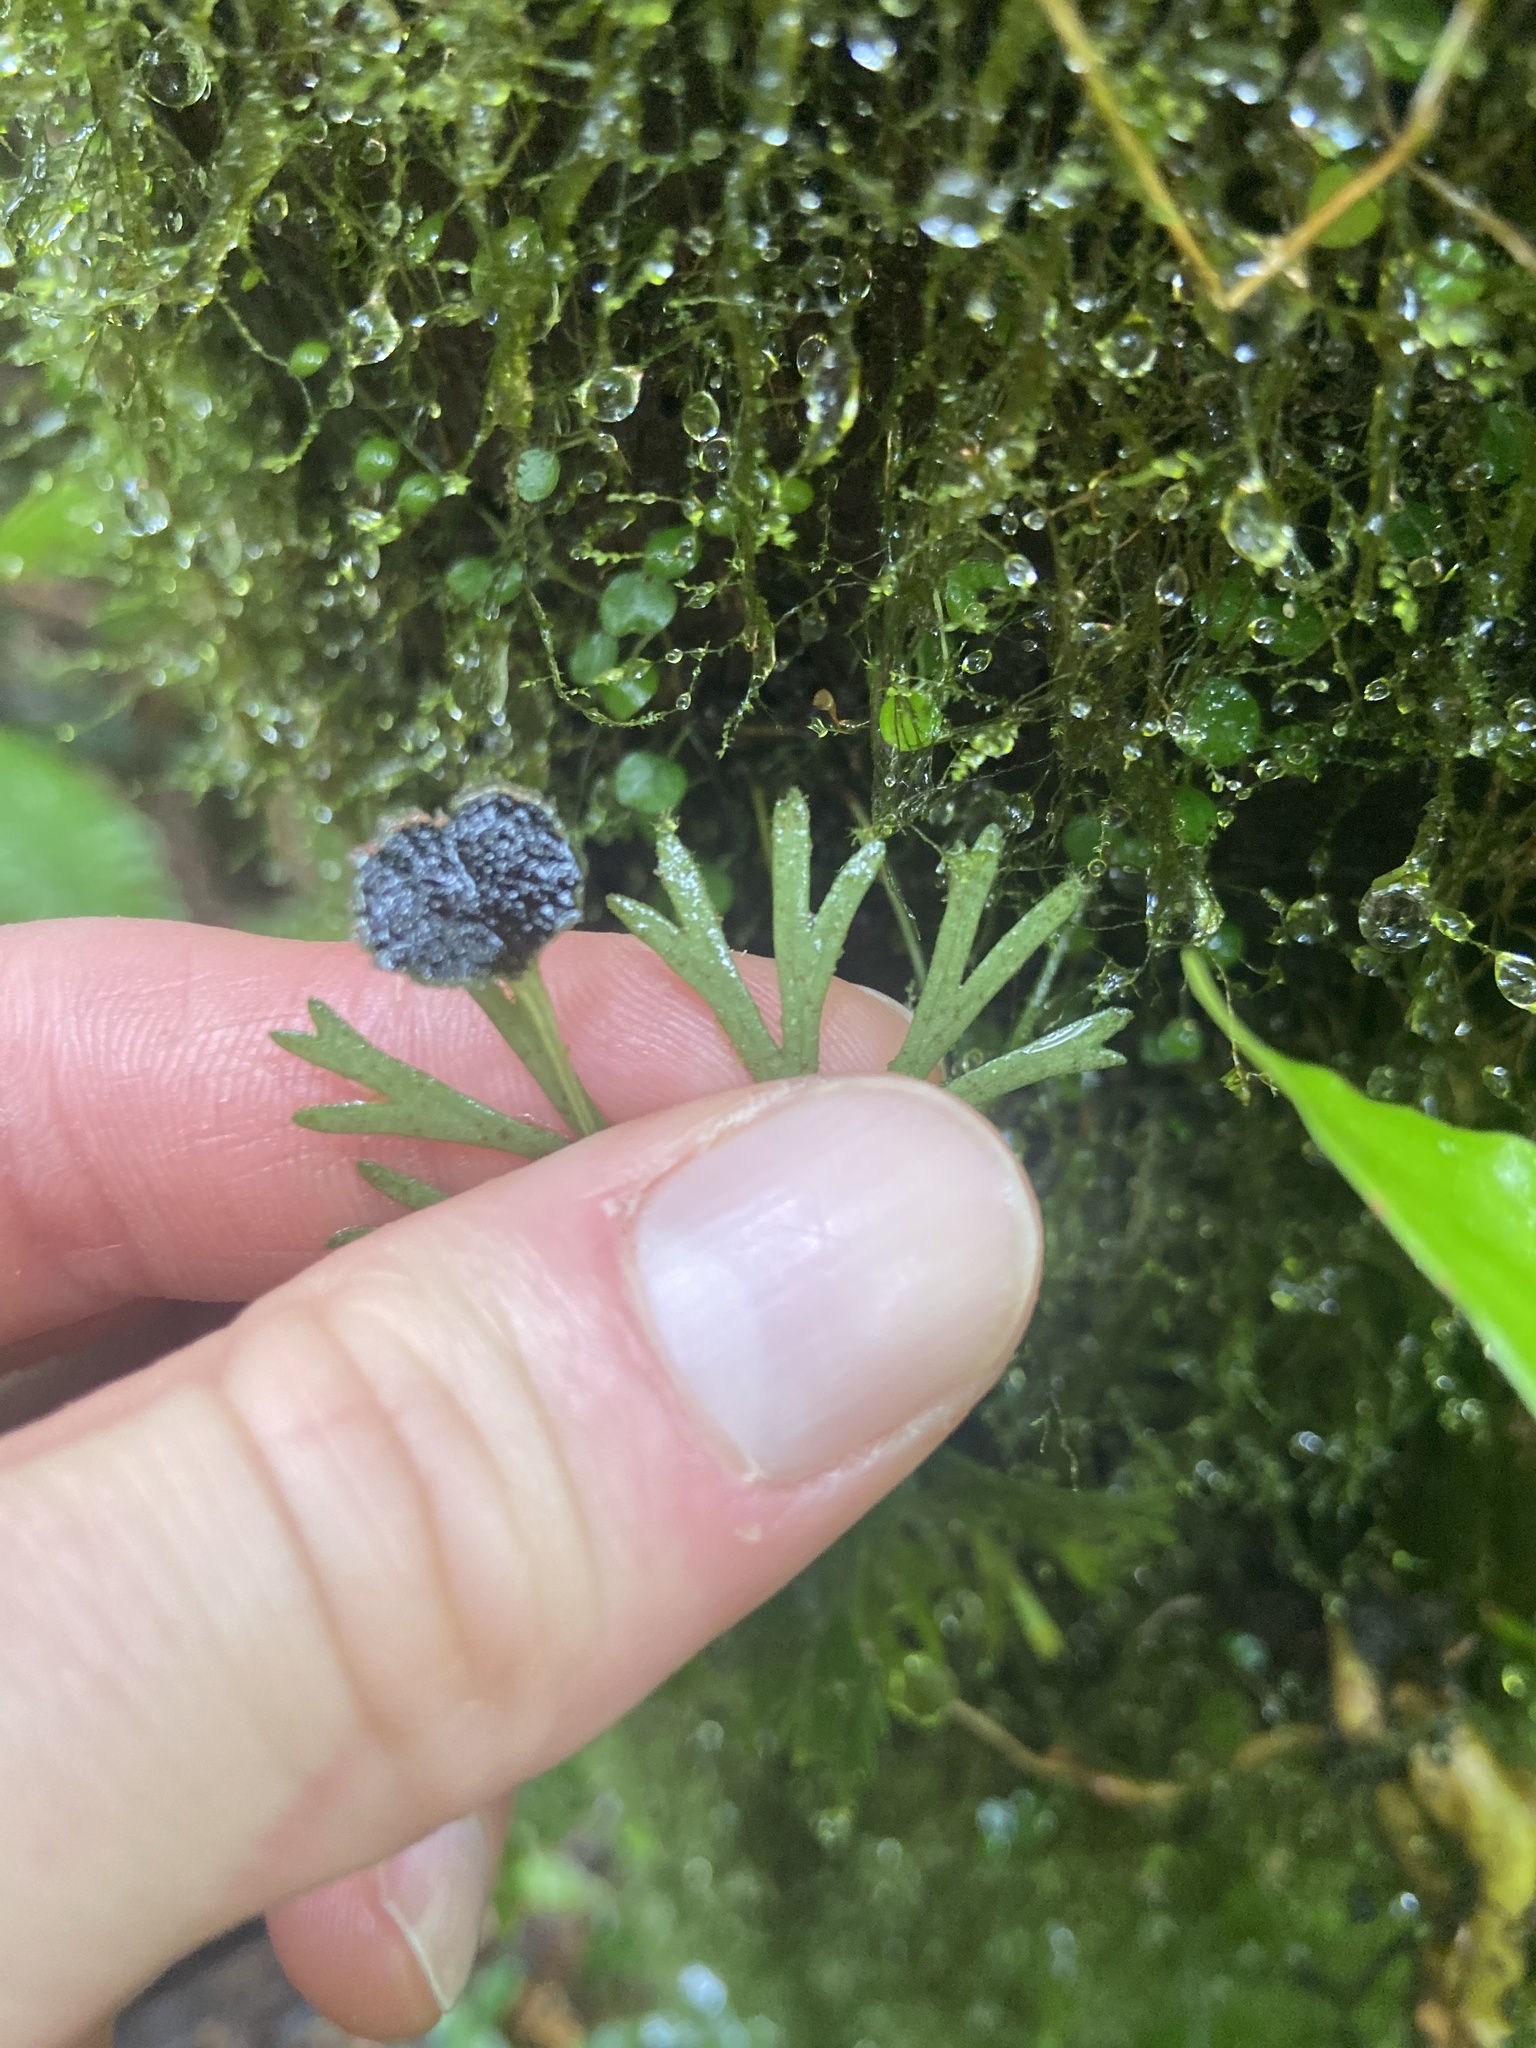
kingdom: Plantae
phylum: Tracheophyta
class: Polypodiopsida
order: Polypodiales
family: Dryopteridaceae
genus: Elaphoglossum
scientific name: Elaphoglossum peltatum
